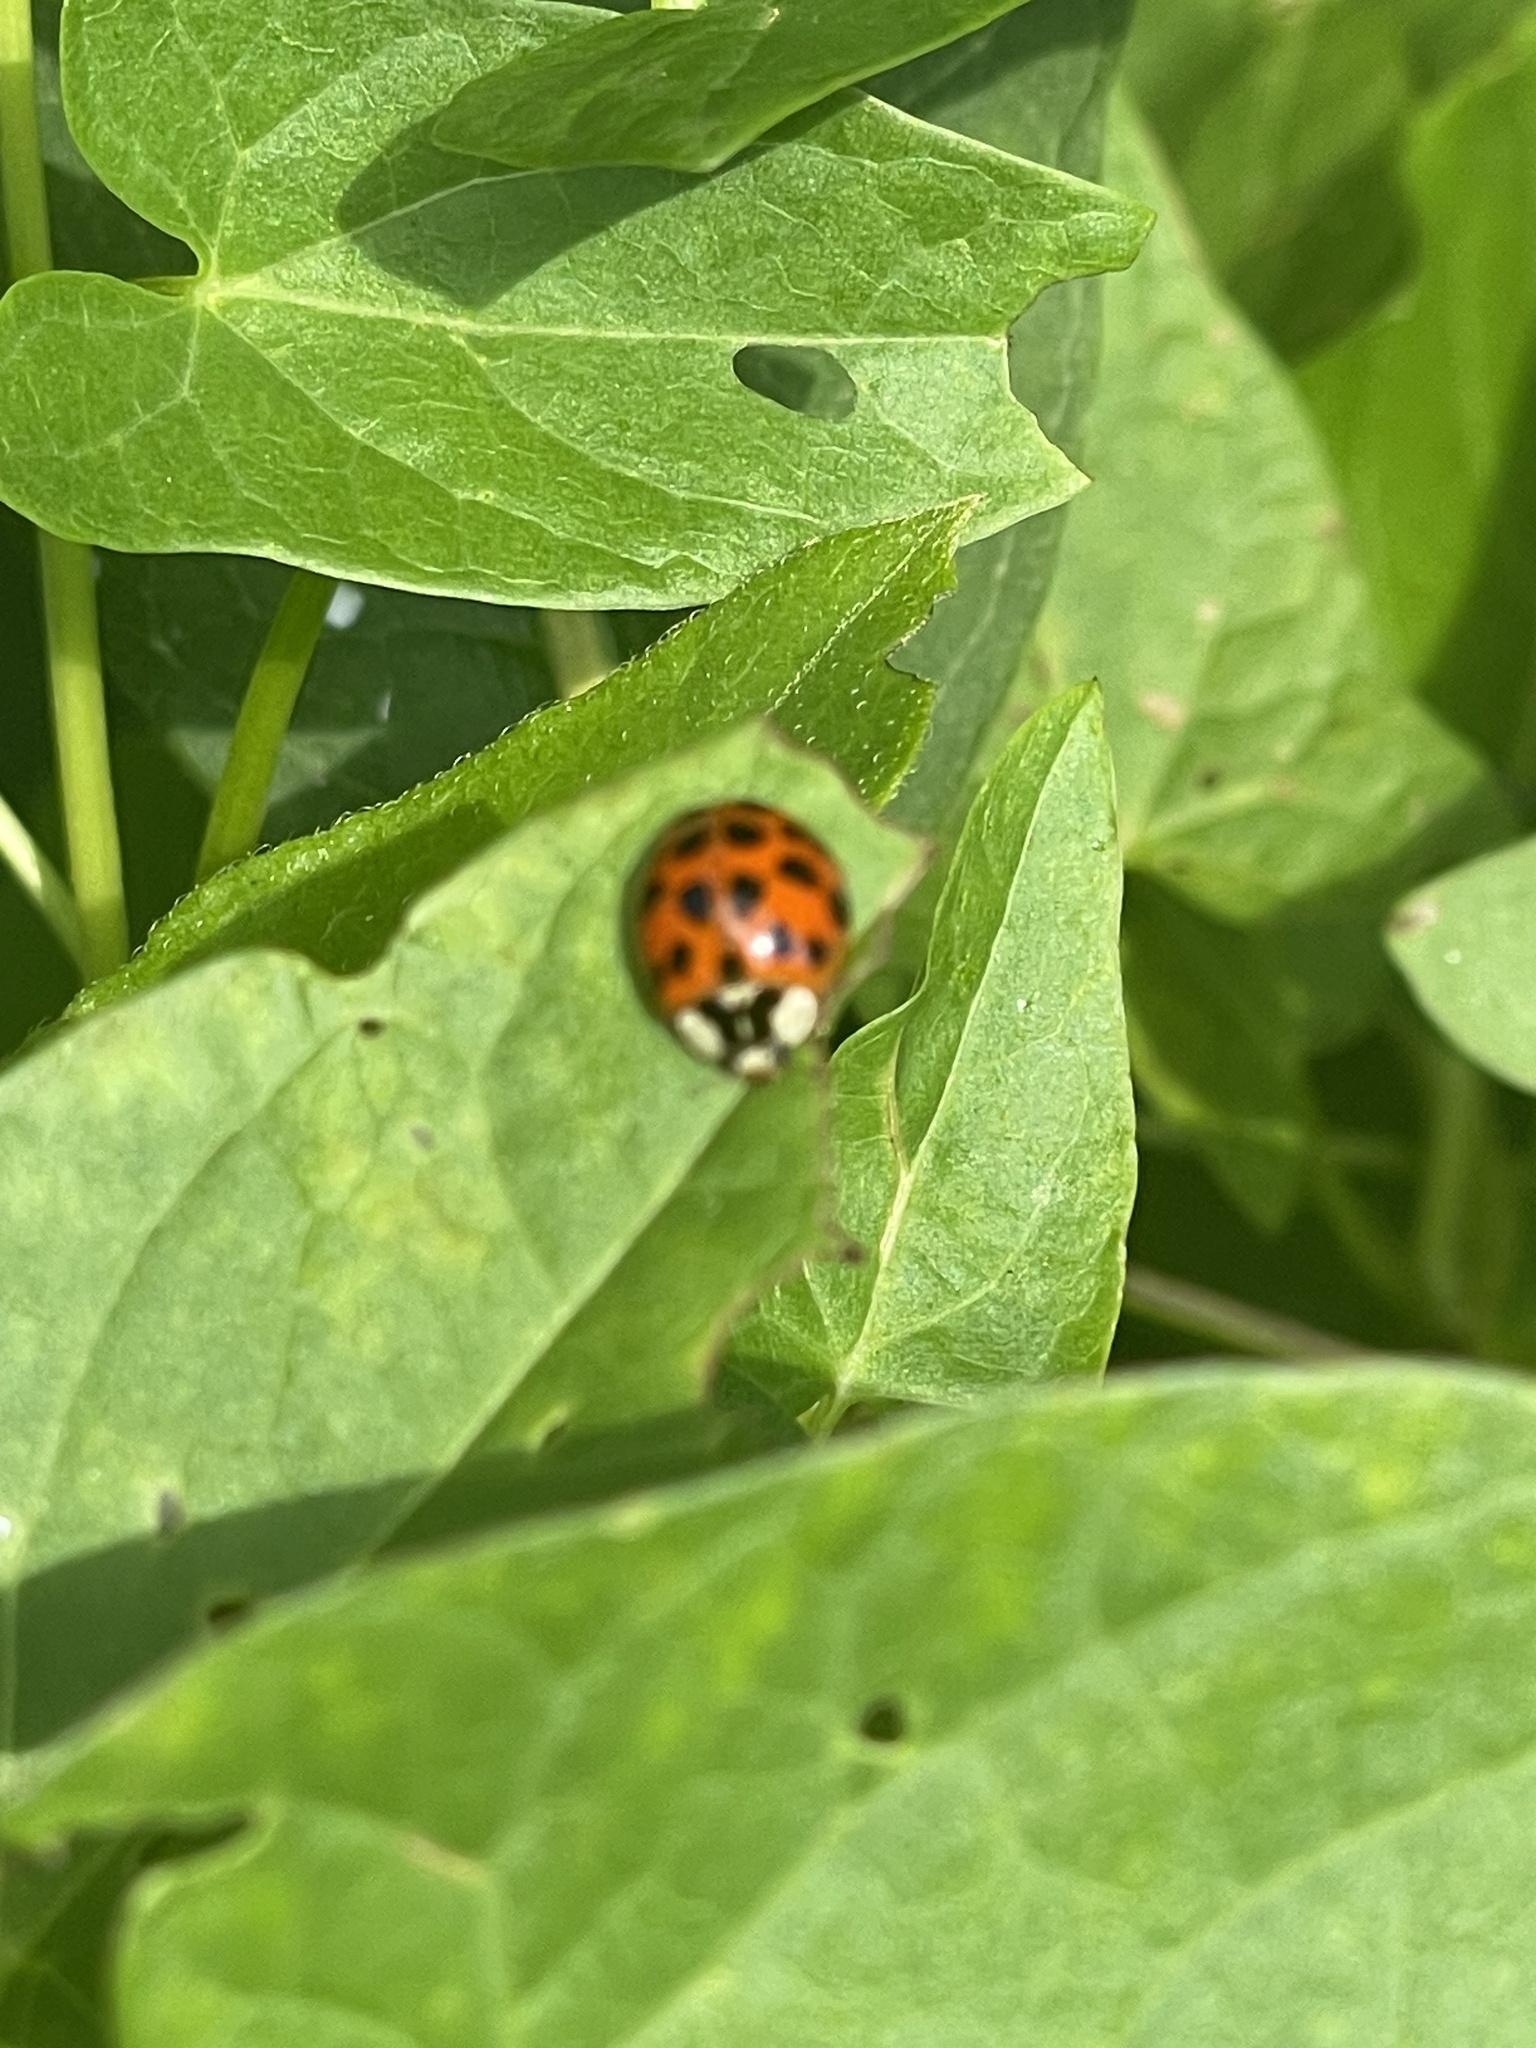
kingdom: Animalia
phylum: Arthropoda
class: Insecta
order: Coleoptera
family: Coccinellidae
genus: Harmonia
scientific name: Harmonia axyridis
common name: Harlequin ladybird
